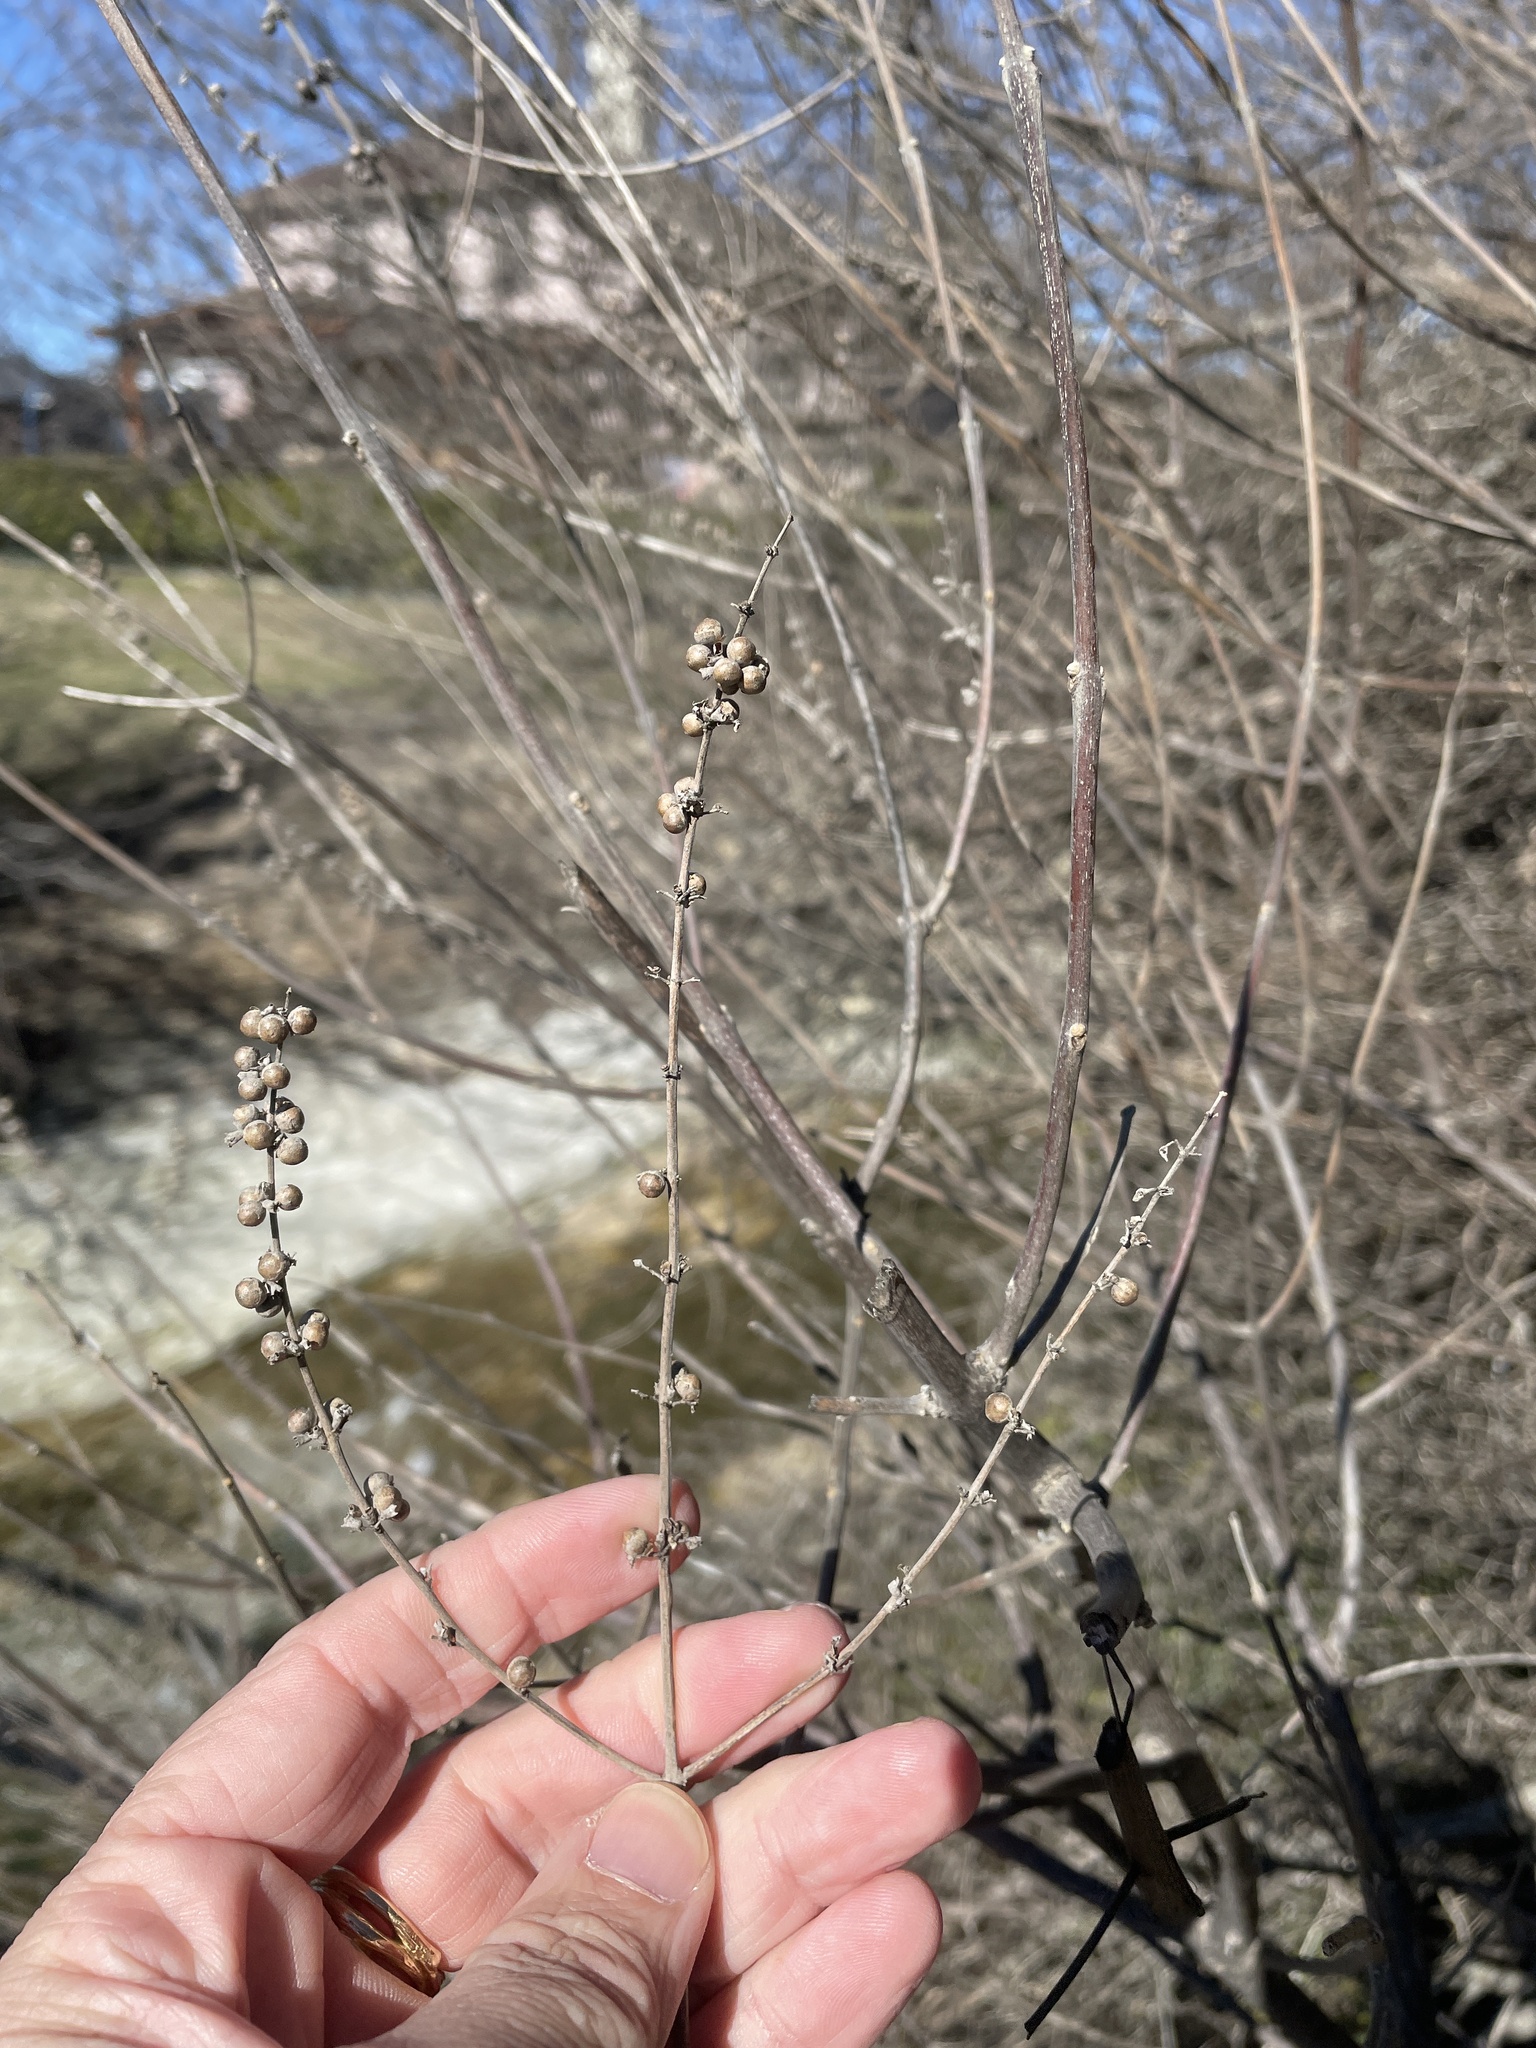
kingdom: Plantae
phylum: Tracheophyta
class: Magnoliopsida
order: Lamiales
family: Lamiaceae
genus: Vitex
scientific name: Vitex agnus-castus
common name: Chasteberry
